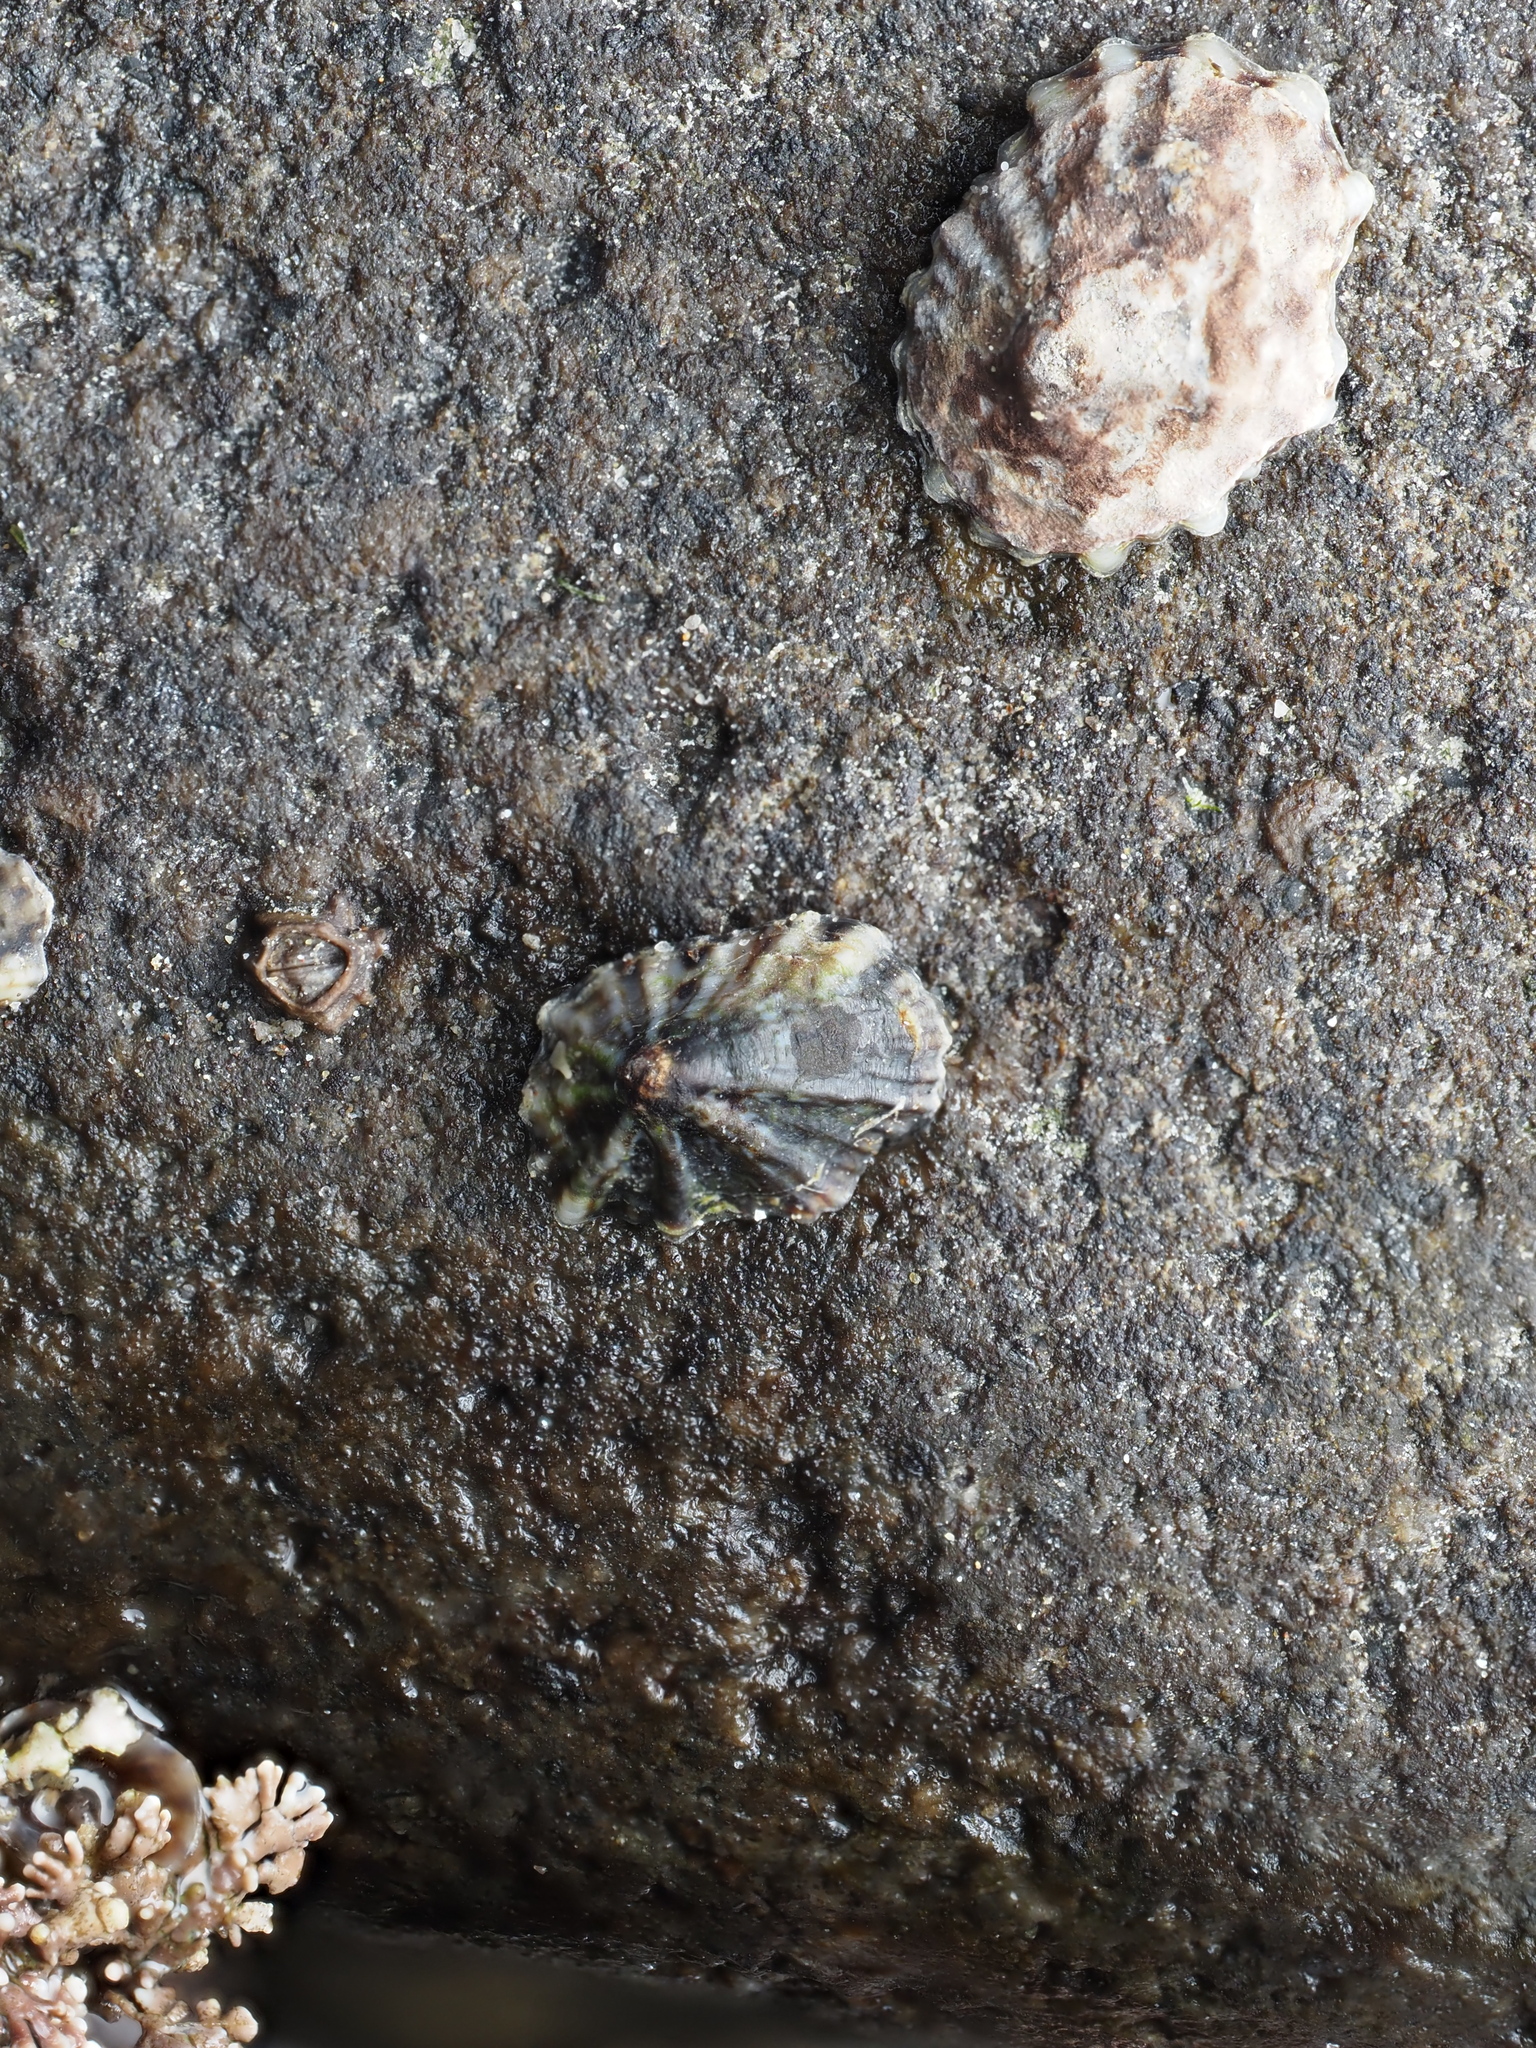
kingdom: Animalia
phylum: Mollusca
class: Gastropoda
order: Siphonariida
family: Siphonariidae
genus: Siphonaria
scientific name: Siphonaria australis
